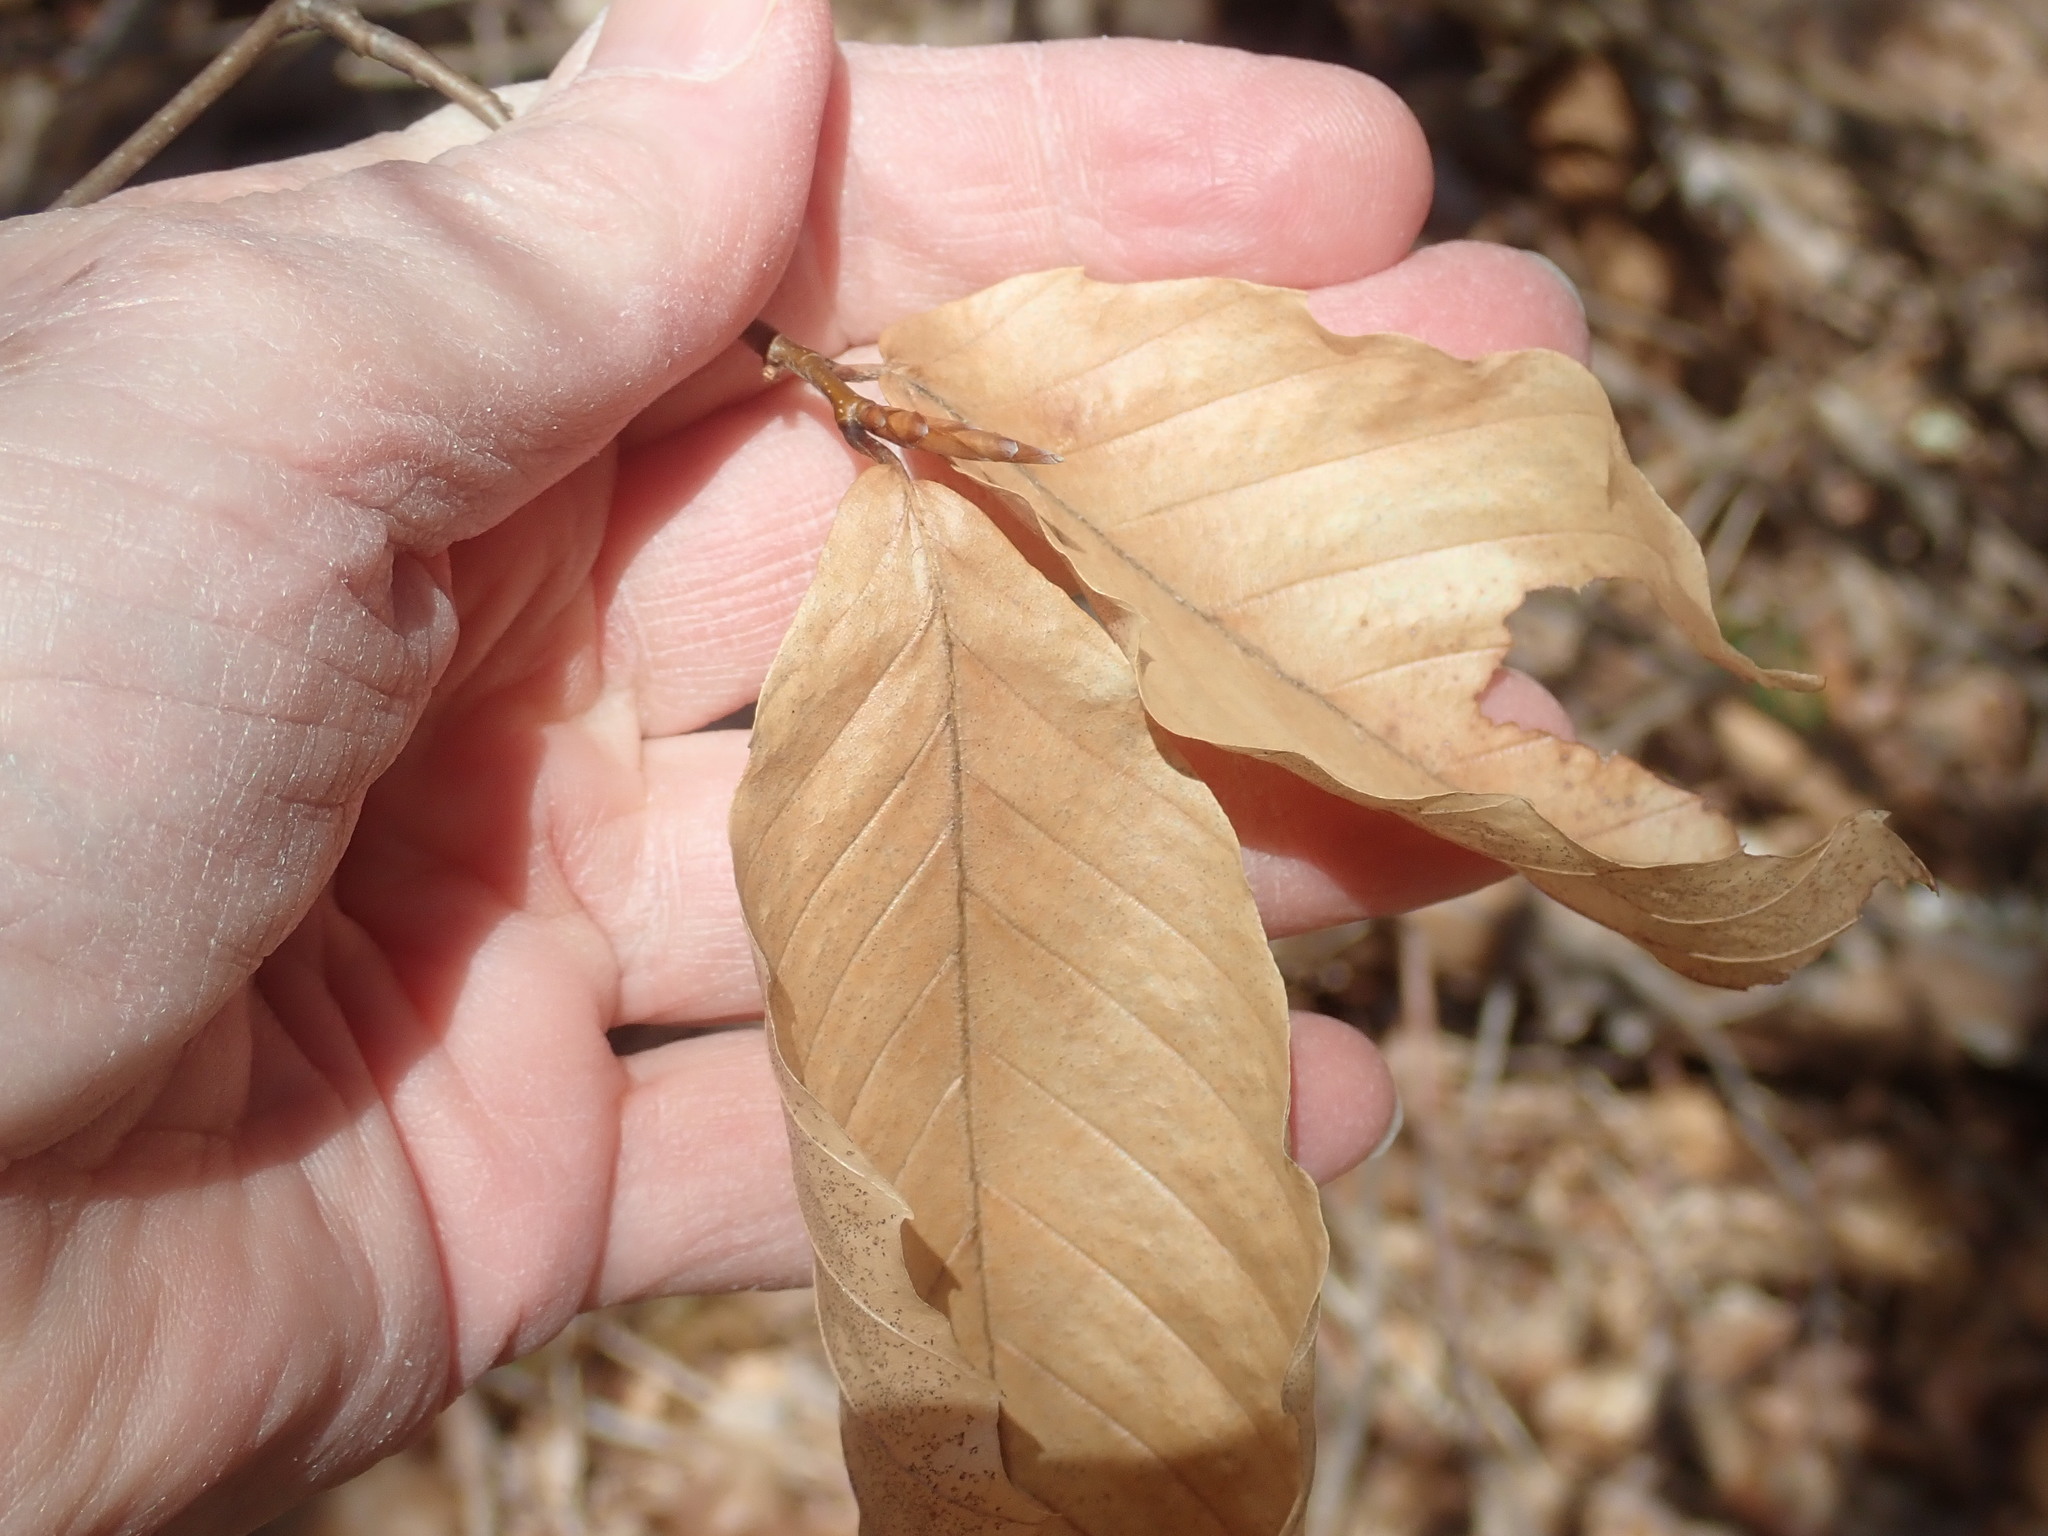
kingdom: Plantae
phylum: Tracheophyta
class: Magnoliopsida
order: Fagales
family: Fagaceae
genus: Fagus
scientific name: Fagus grandifolia
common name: American beech
